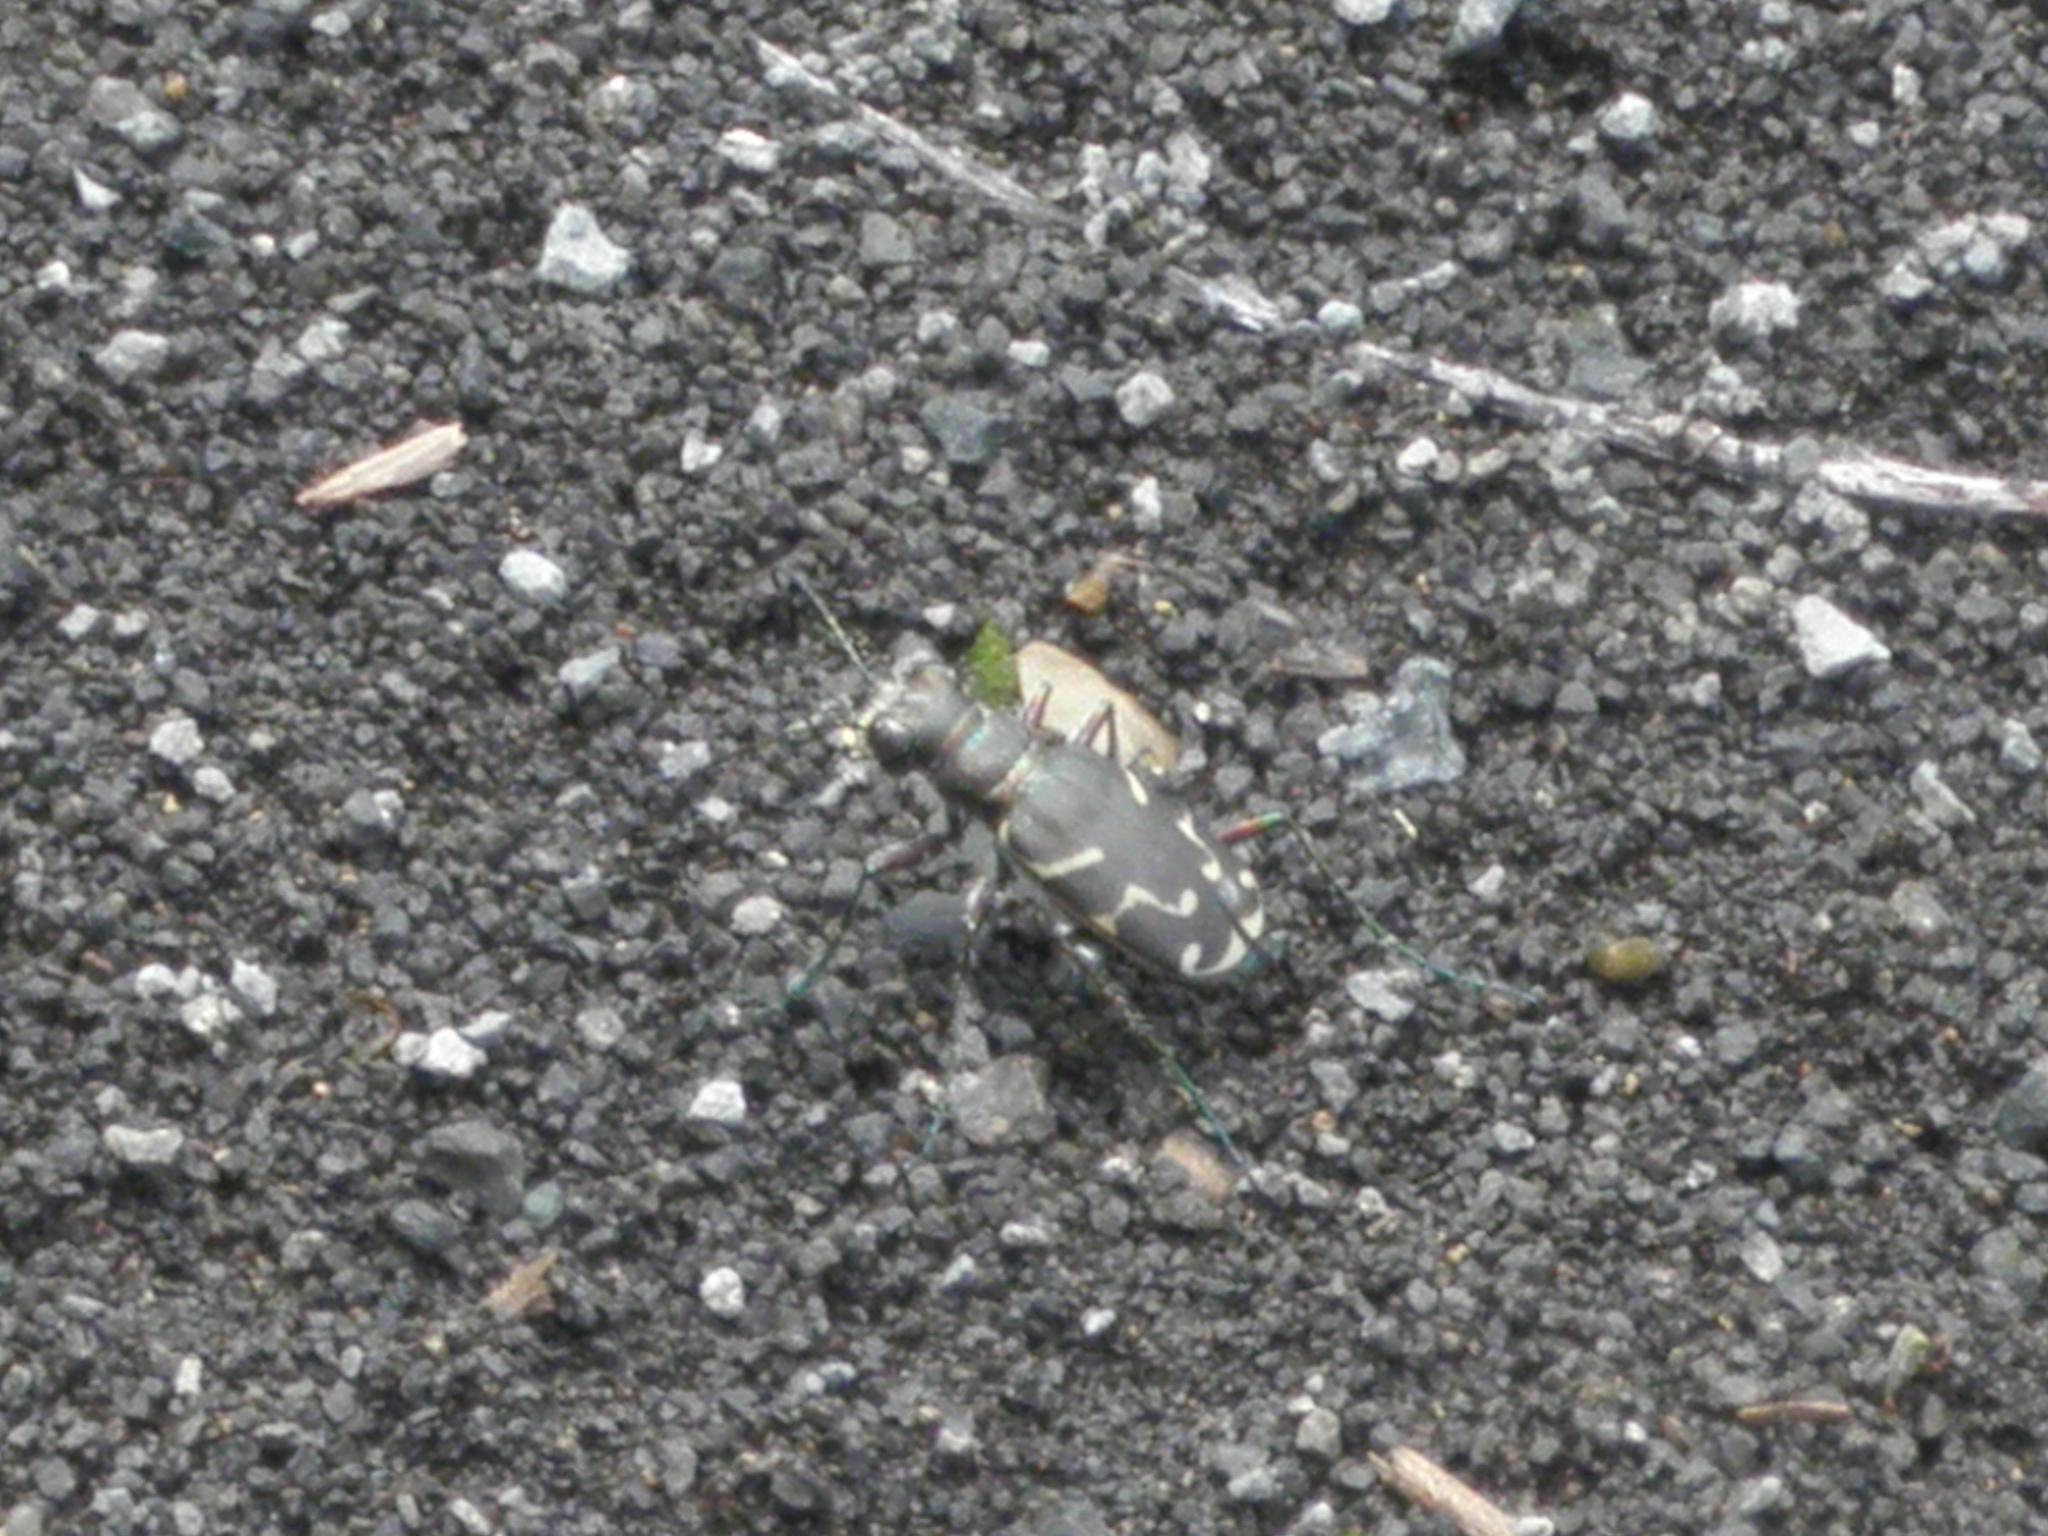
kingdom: Animalia
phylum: Arthropoda
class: Insecta
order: Coleoptera
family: Carabidae
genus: Cicindela
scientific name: Cicindela tranquebarica
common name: Oblique-lined tiger beetle
